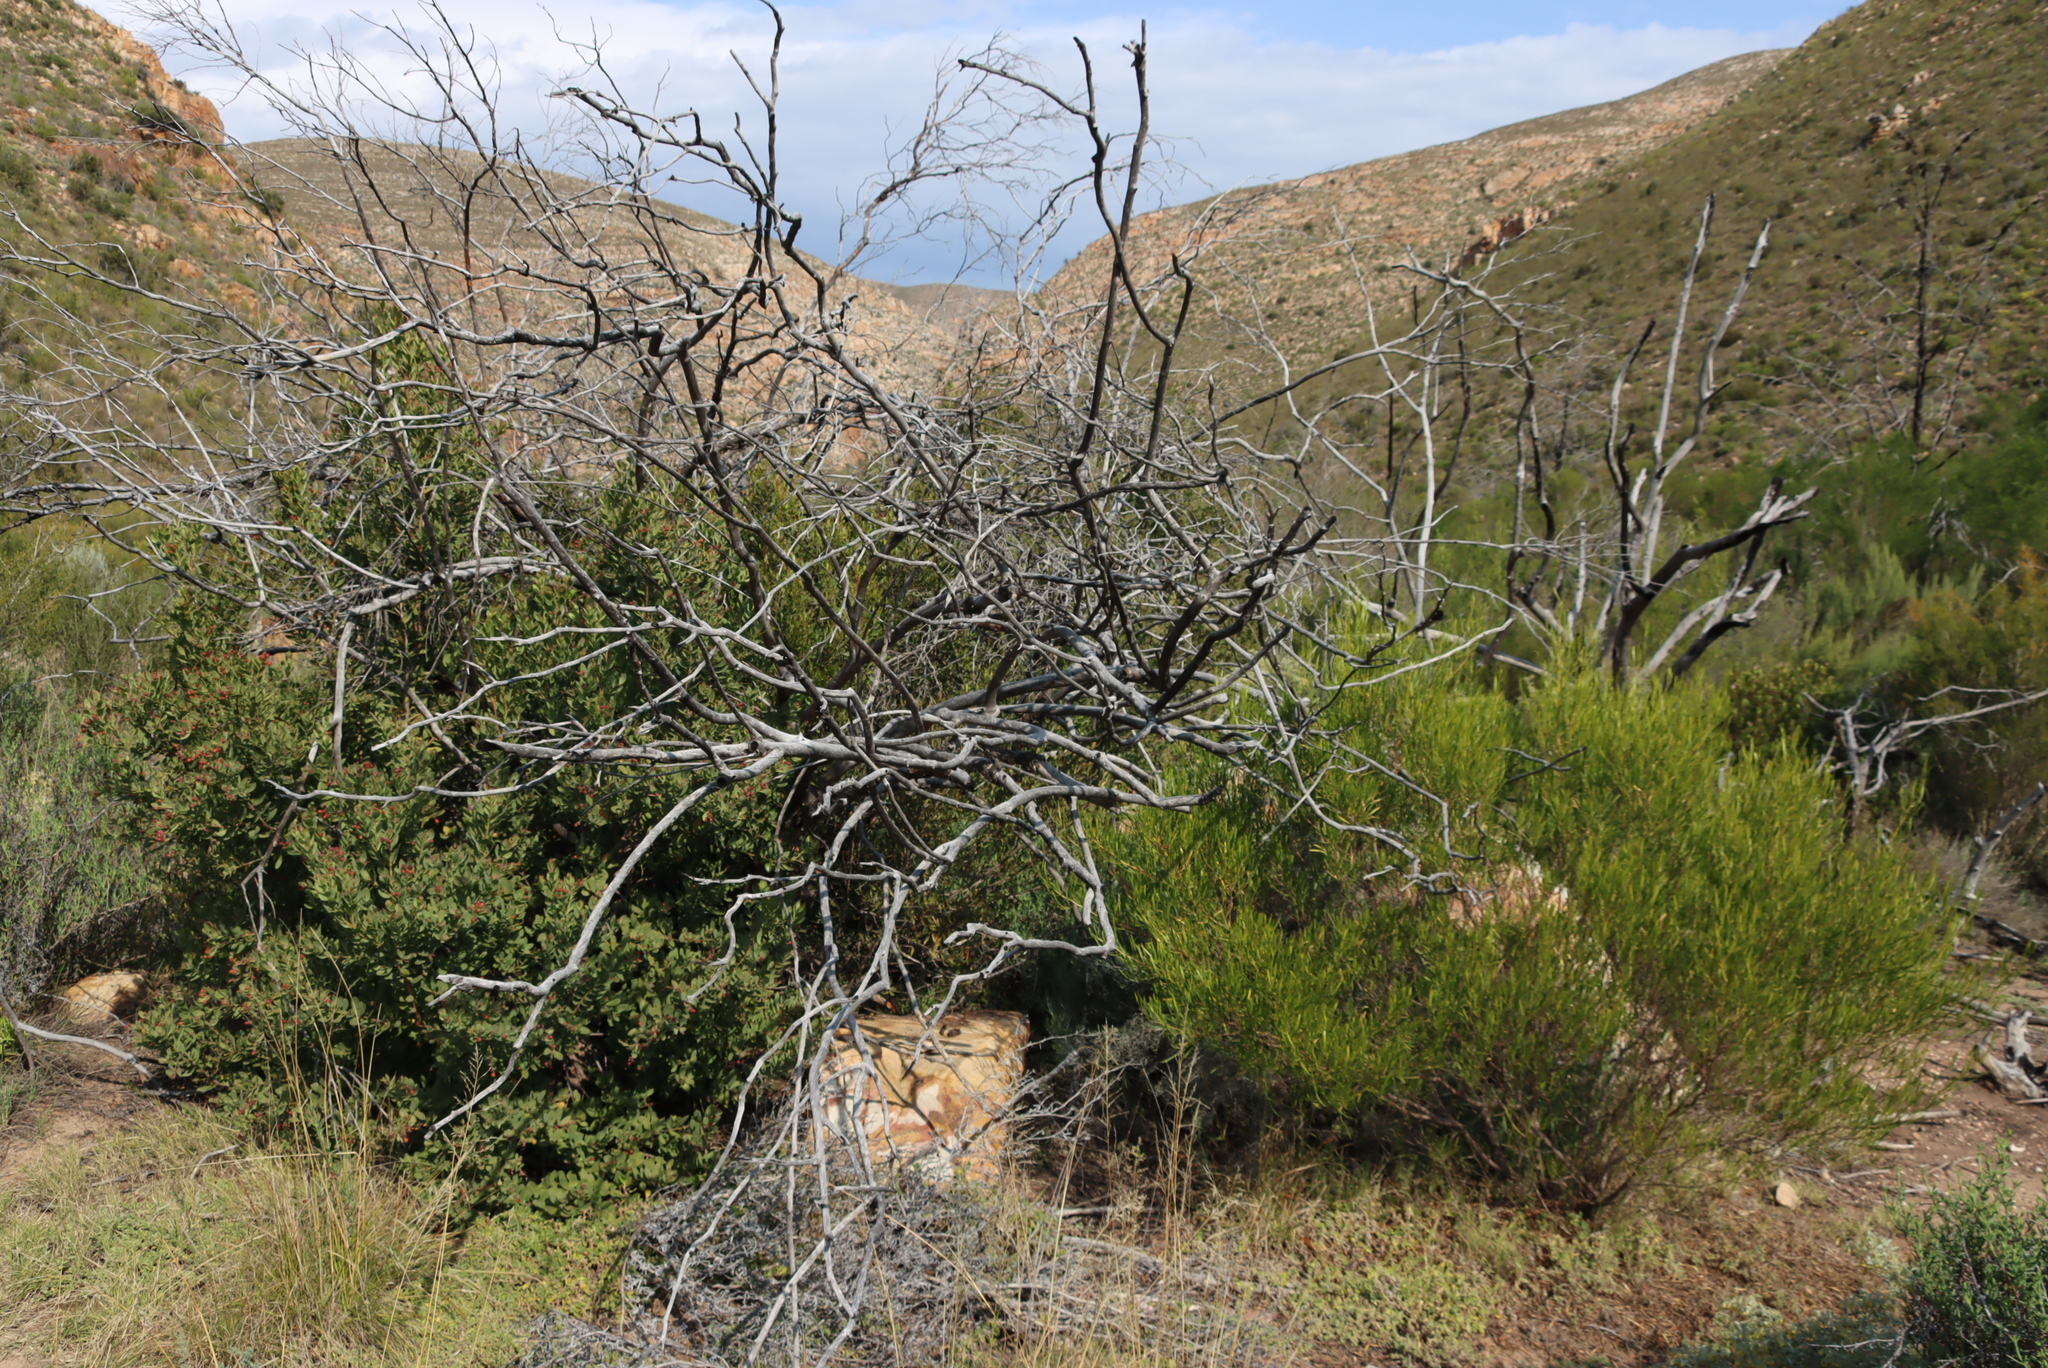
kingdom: Plantae
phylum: Tracheophyta
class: Magnoliopsida
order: Sapindales
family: Sapindaceae
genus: Dodonaea
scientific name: Dodonaea viscosa
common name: Hopbush
